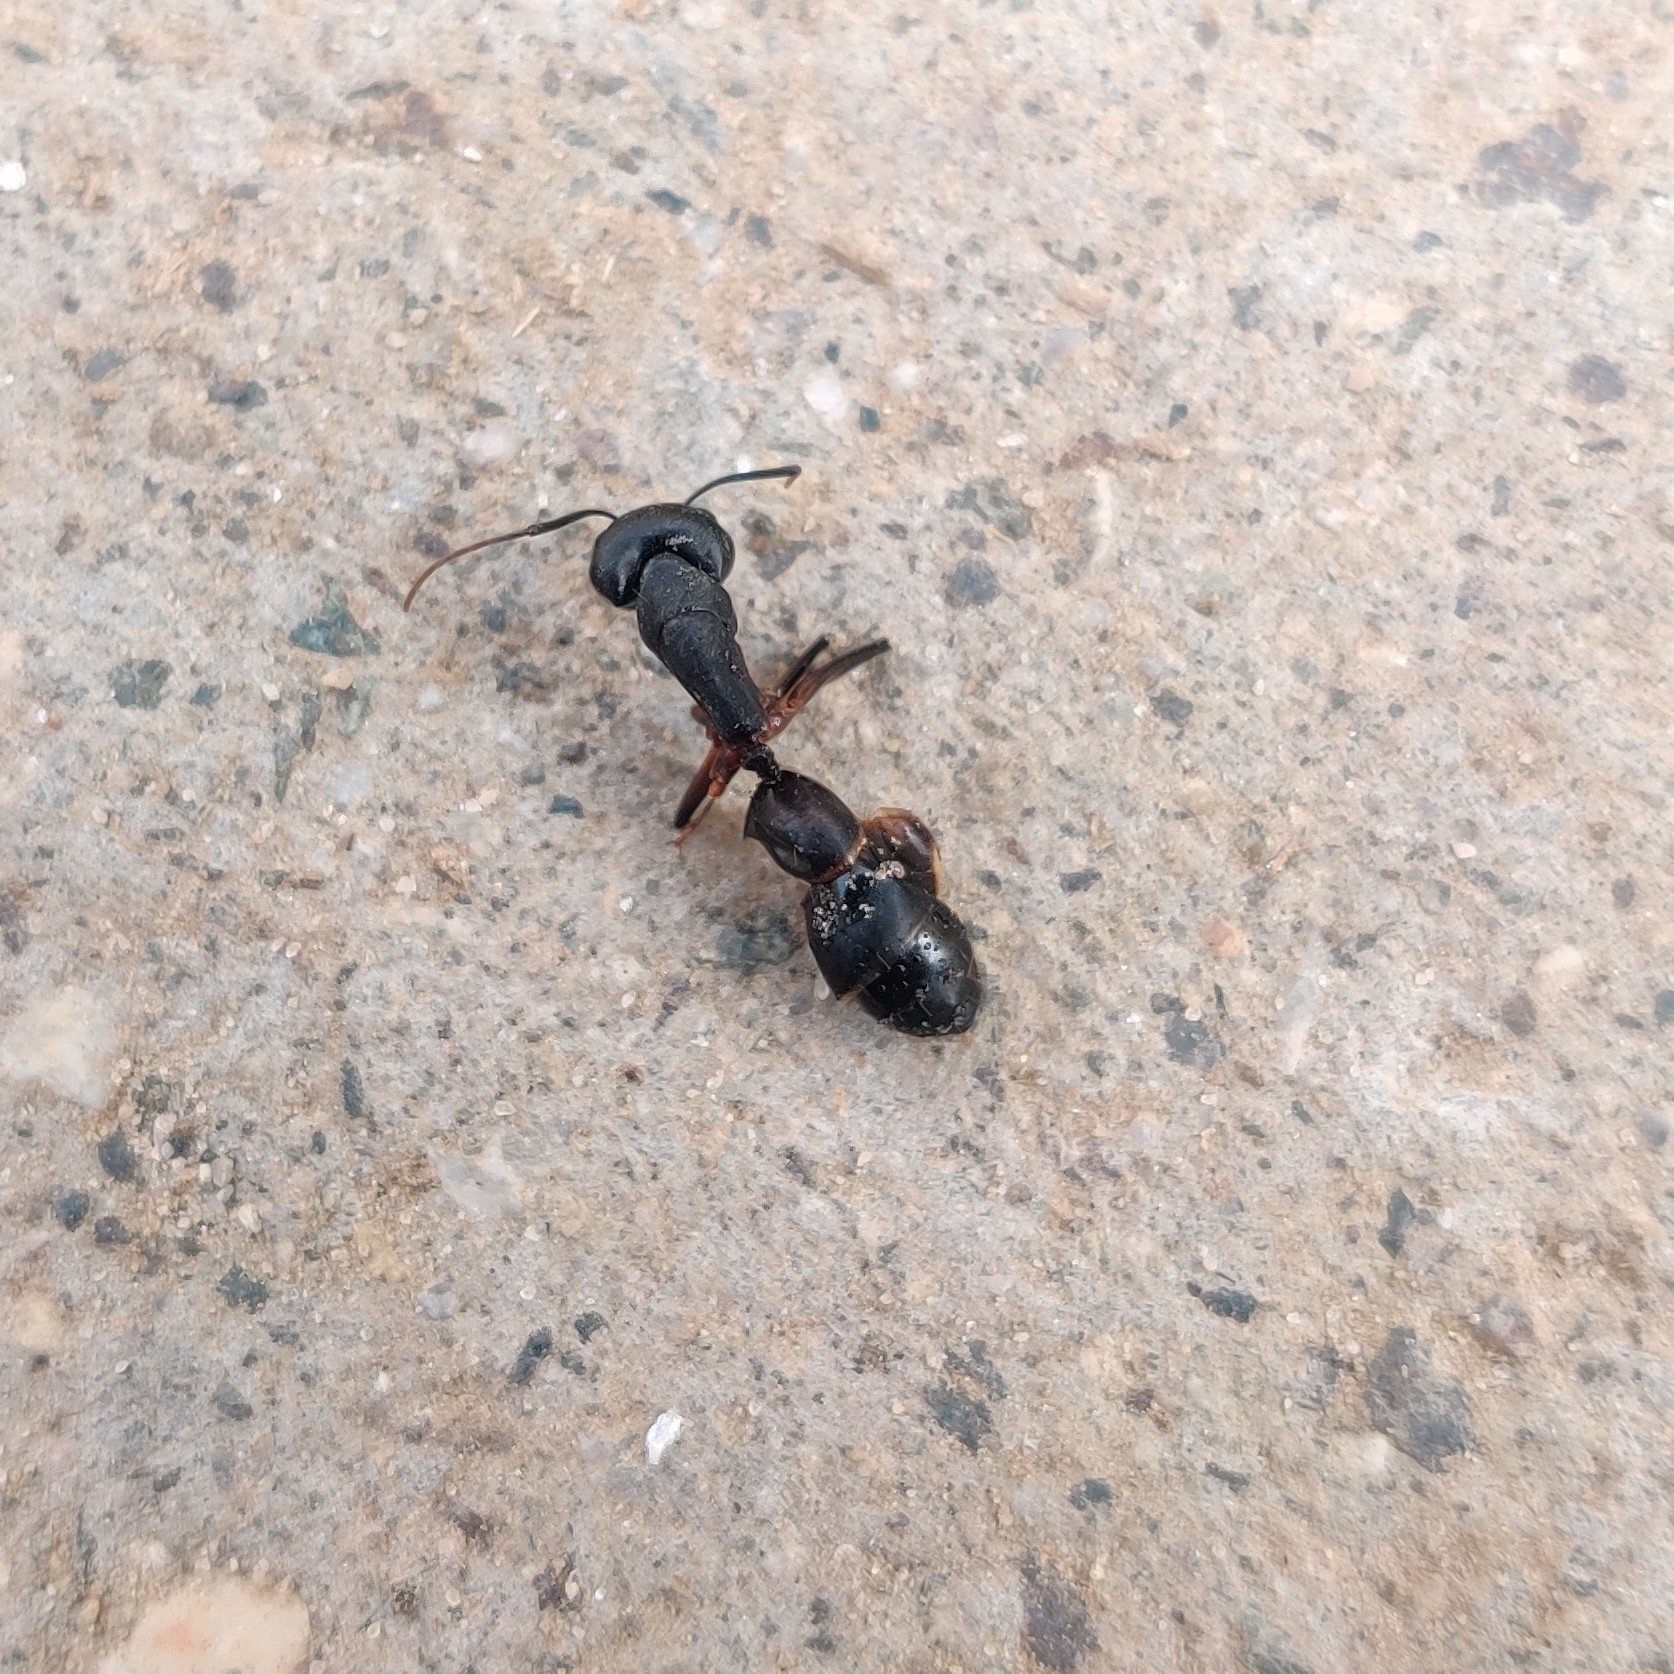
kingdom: Animalia
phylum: Arthropoda
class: Insecta
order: Hymenoptera
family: Formicidae
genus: Camponotus
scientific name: Camponotus compressus
